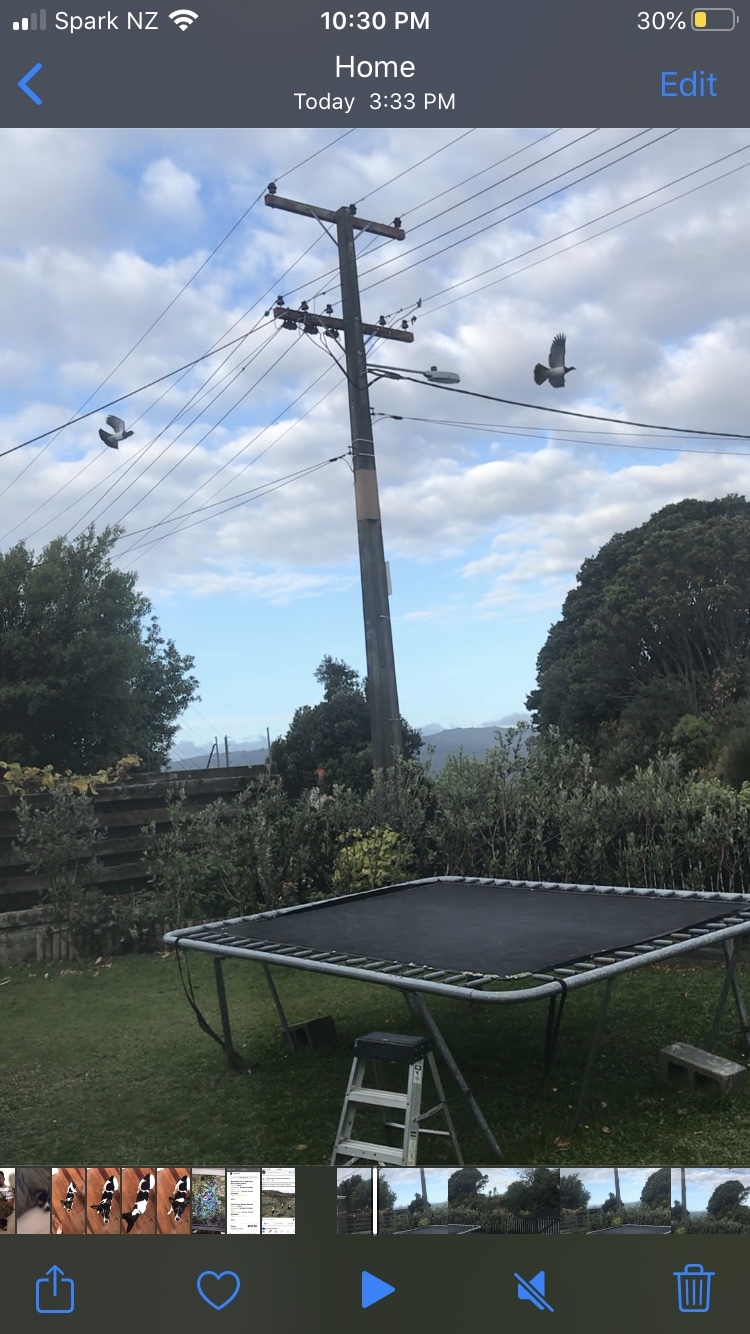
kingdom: Animalia
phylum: Chordata
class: Aves
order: Columbiformes
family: Columbidae
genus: Hemiphaga
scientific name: Hemiphaga novaeseelandiae
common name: New zealand pigeon
